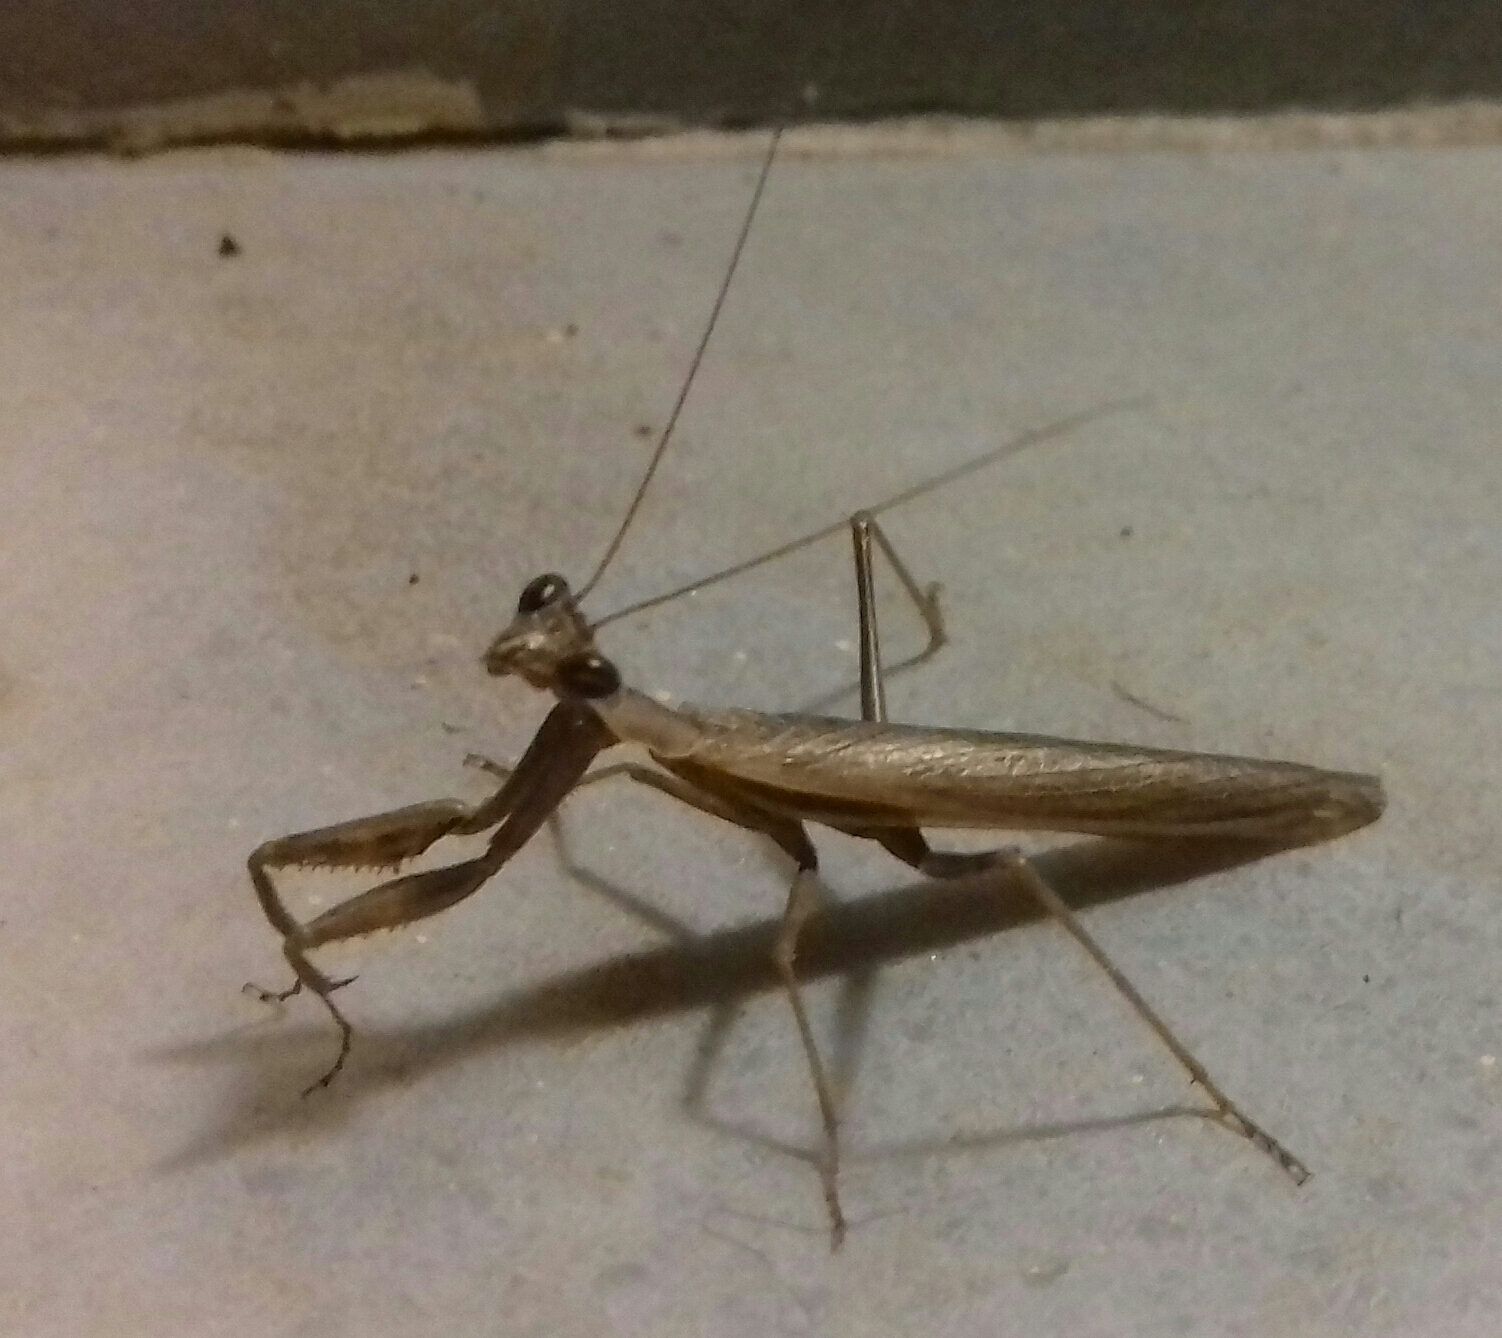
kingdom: Animalia
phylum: Arthropoda
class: Insecta
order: Mantodea
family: Amelidae
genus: Ameles
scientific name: Ameles decolor
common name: Dwarf mantis
